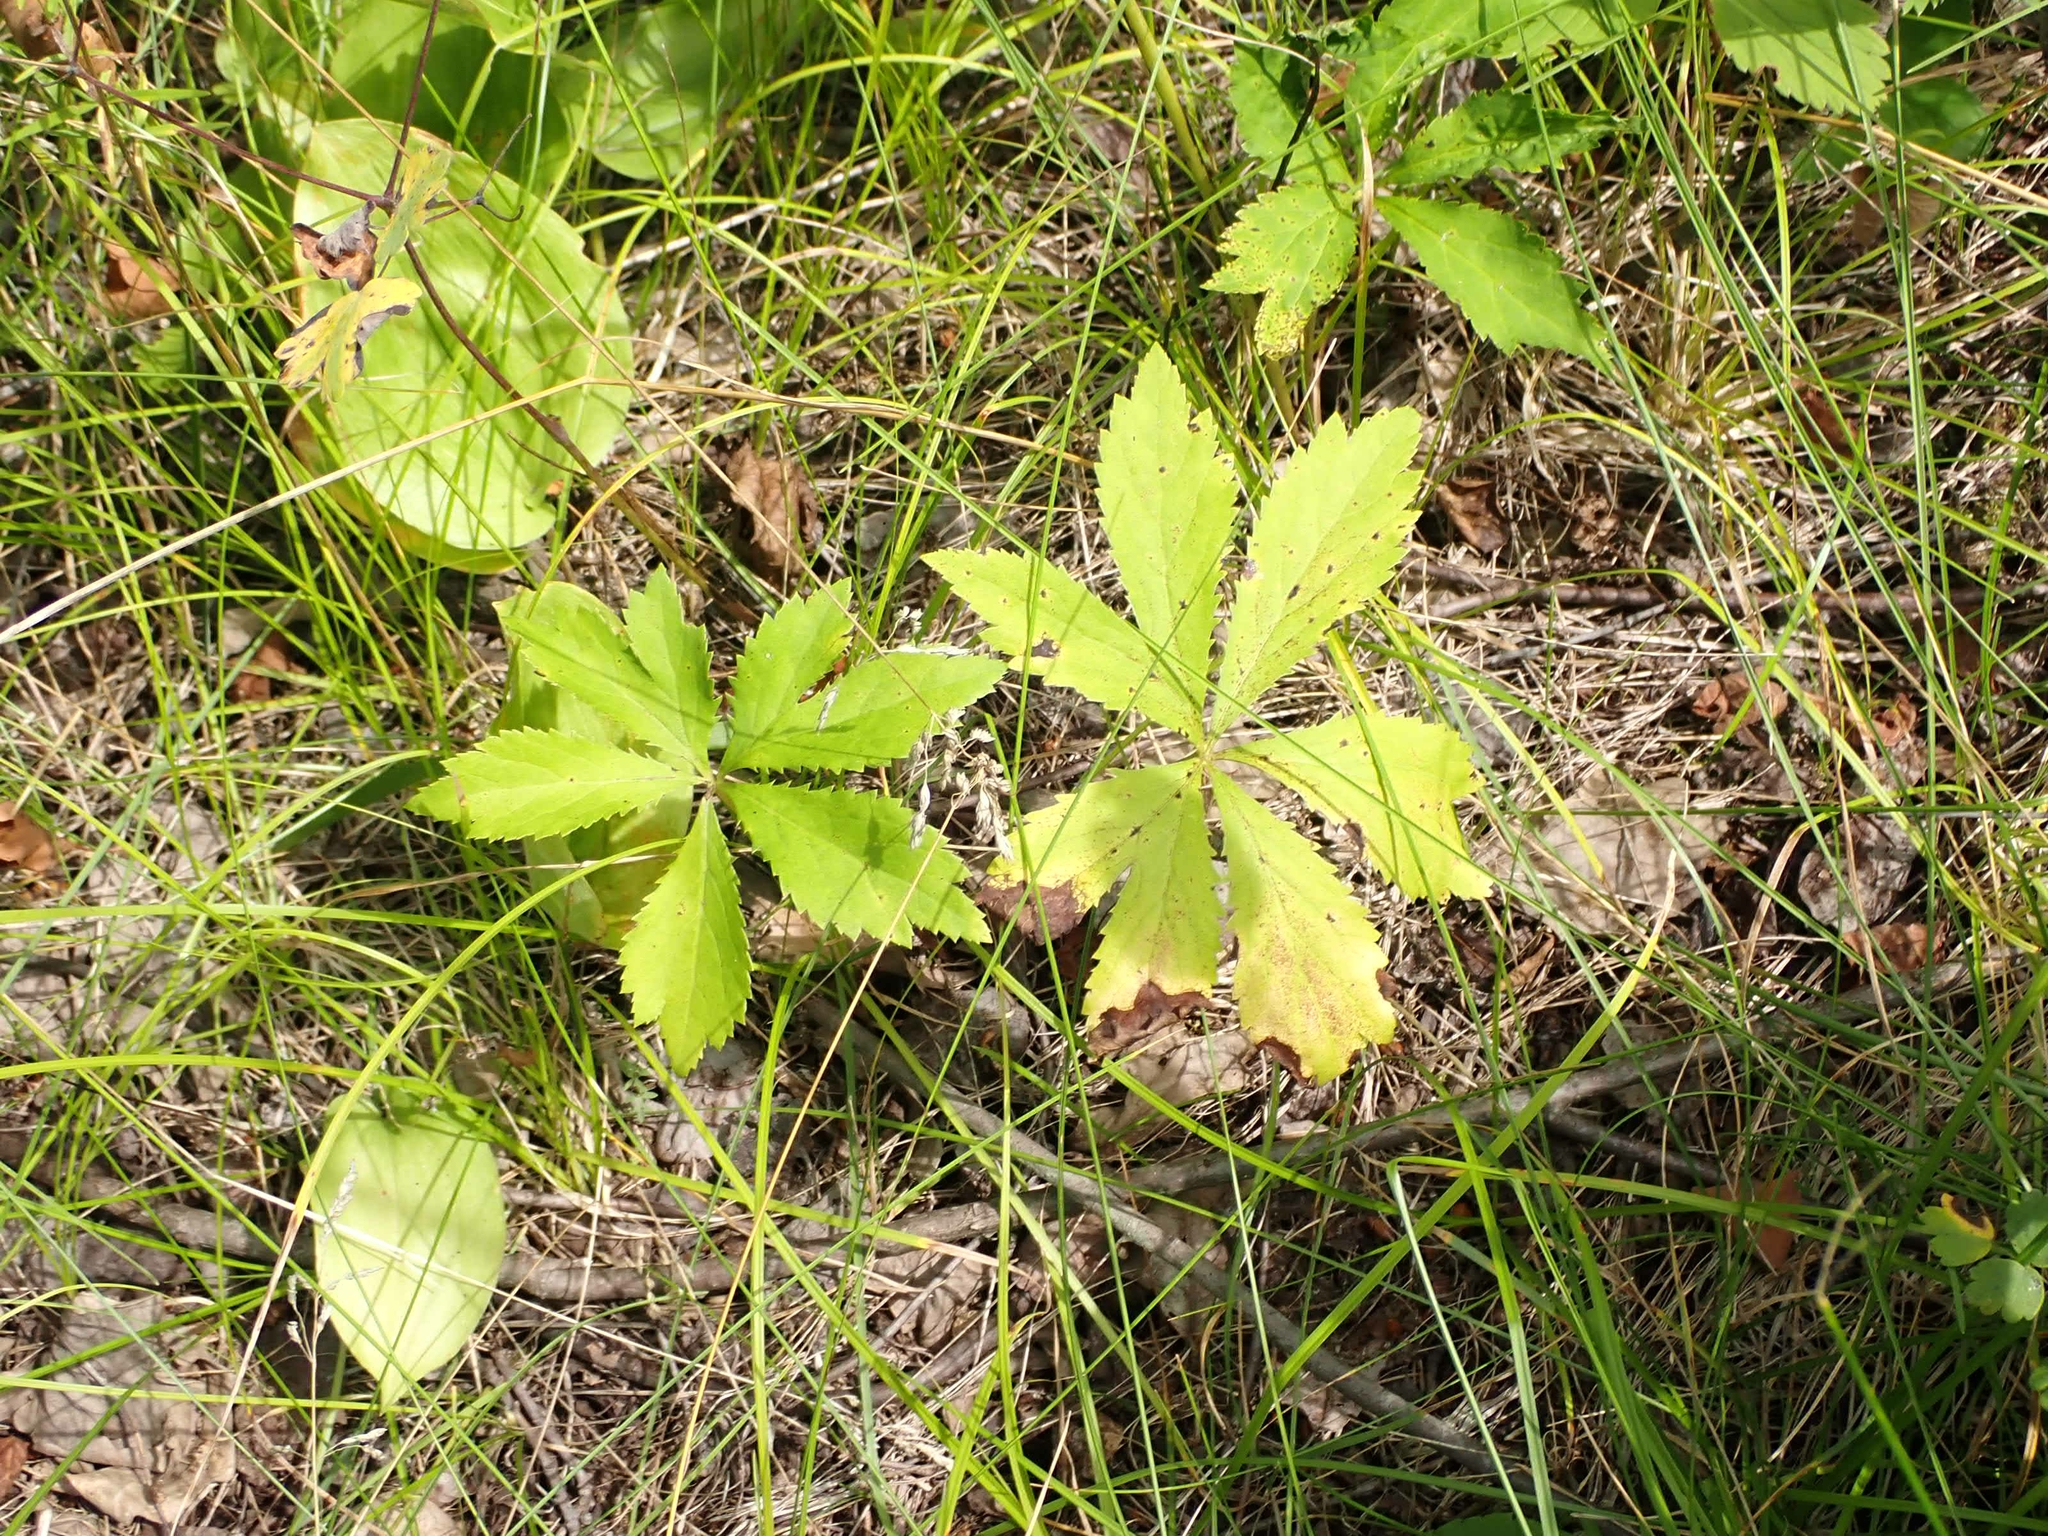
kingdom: Plantae
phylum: Tracheophyta
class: Magnoliopsida
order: Apiales
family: Apiaceae
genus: Sanicula
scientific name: Sanicula marilandica
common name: Black snakeroot
